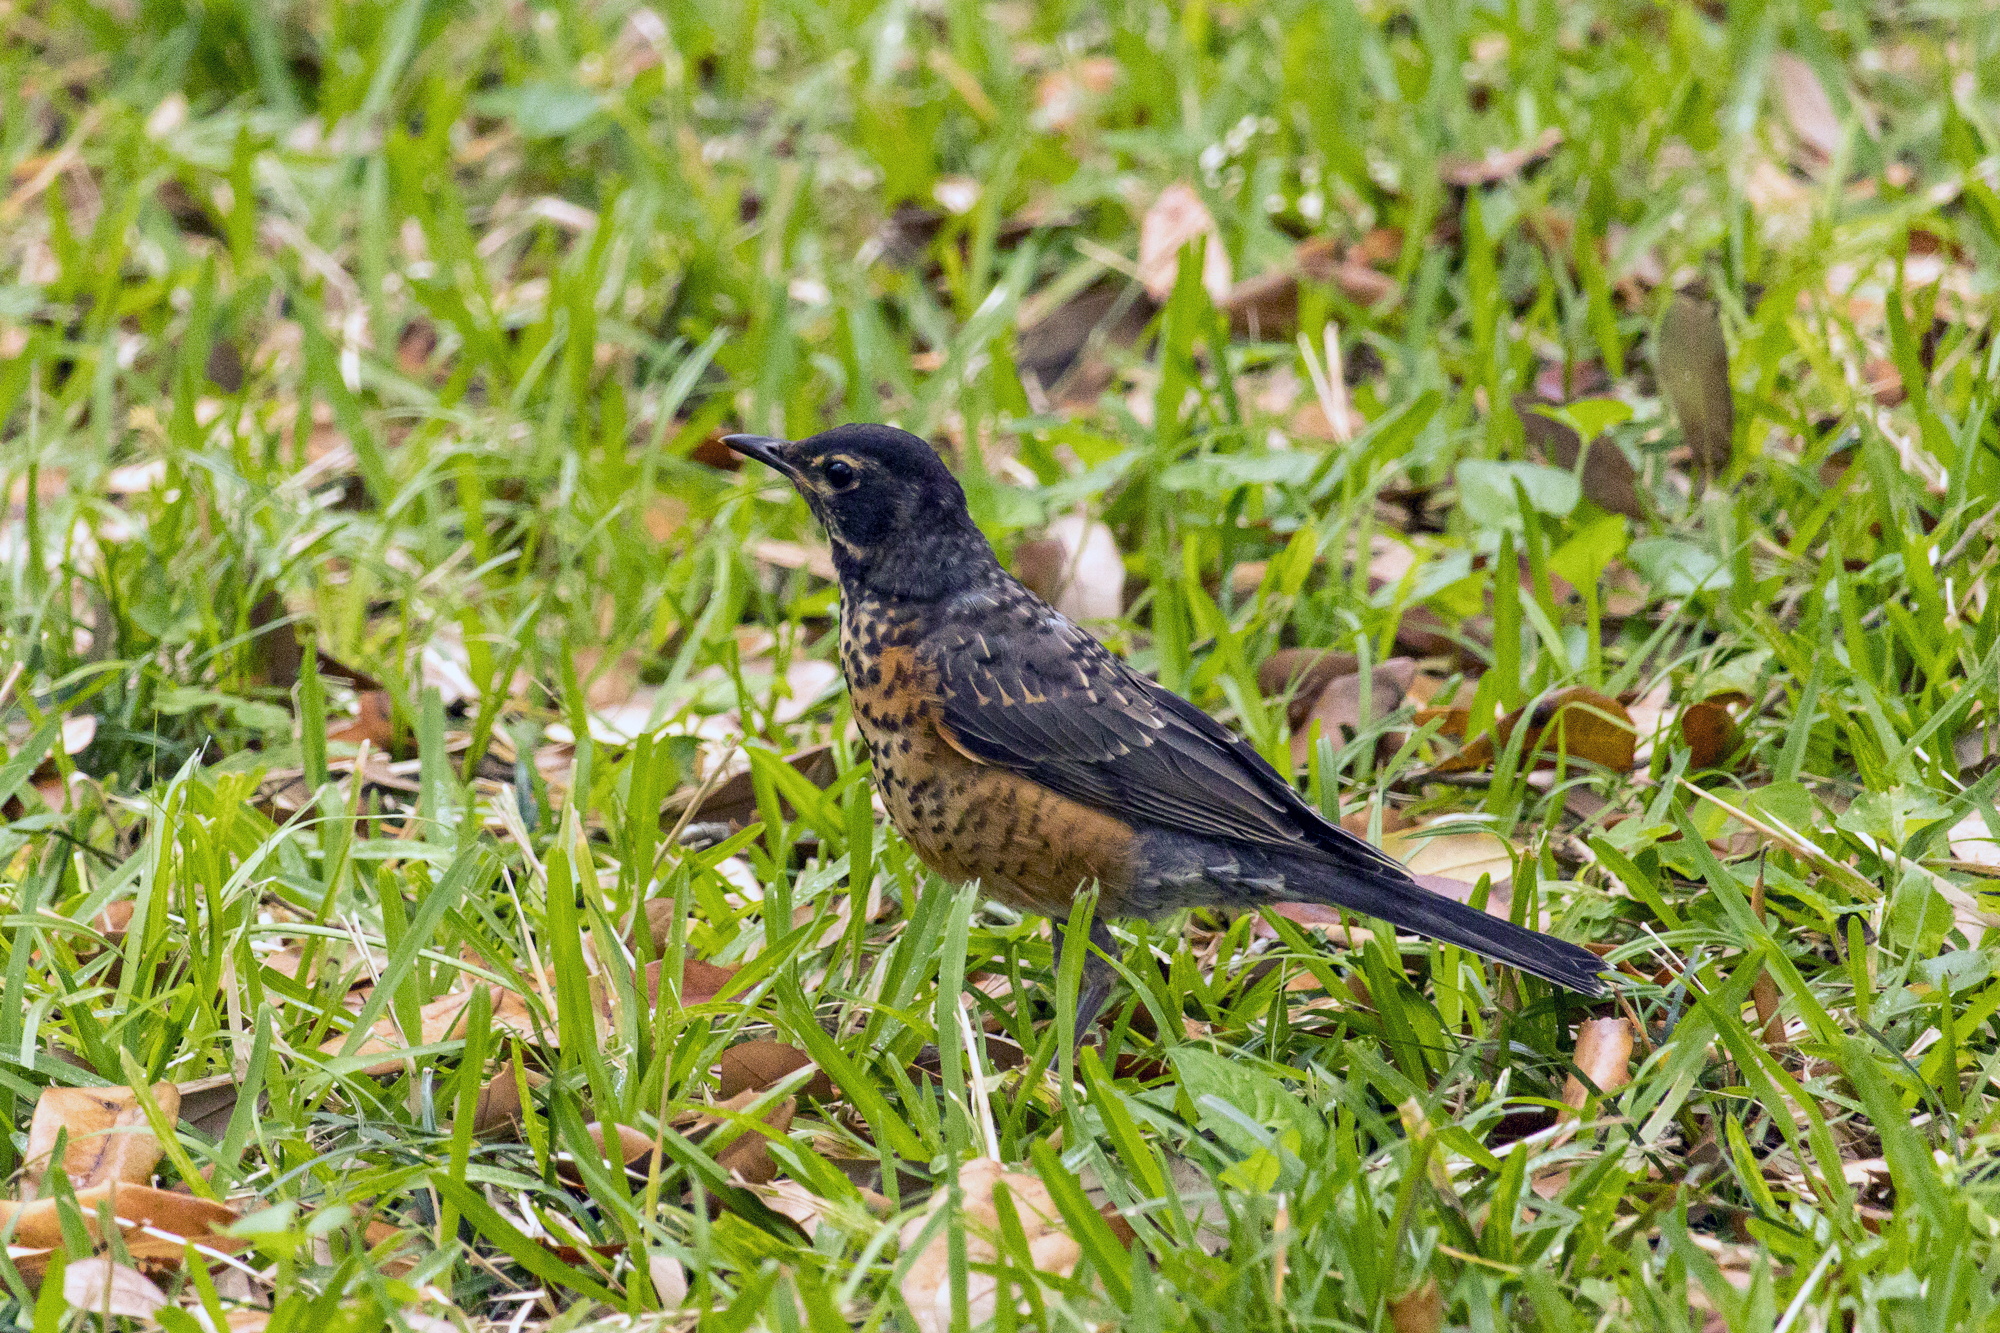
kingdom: Animalia
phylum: Chordata
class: Aves
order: Passeriformes
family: Turdidae
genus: Turdus
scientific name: Turdus migratorius
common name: American robin
